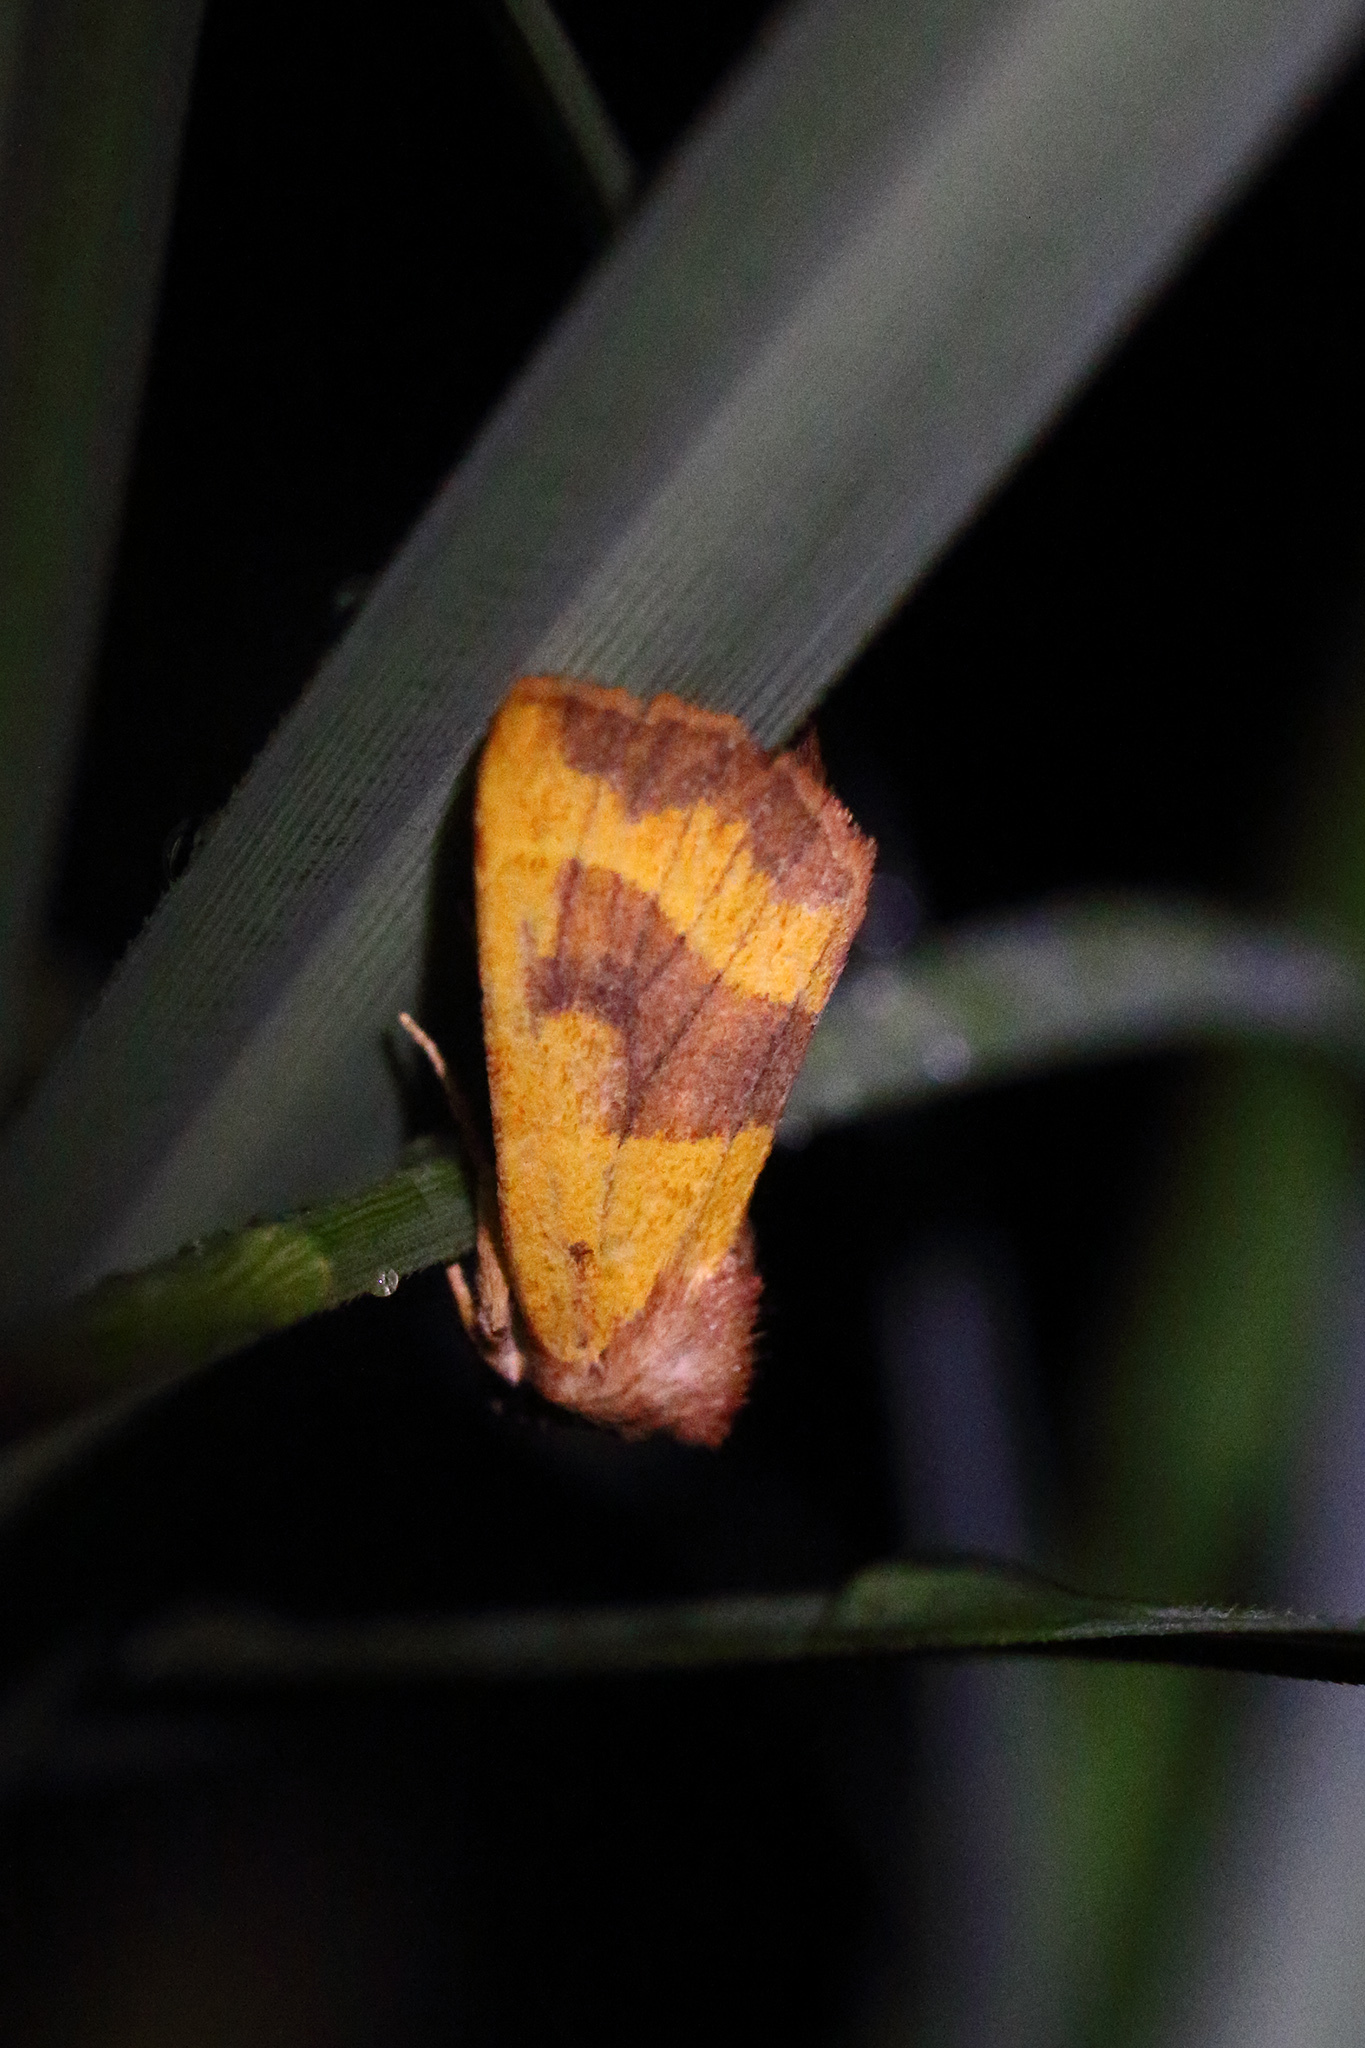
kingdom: Animalia
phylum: Arthropoda
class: Insecta
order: Lepidoptera
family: Noctuidae
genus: Atethmia
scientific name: Atethmia centrago
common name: Centre-barred sallow
